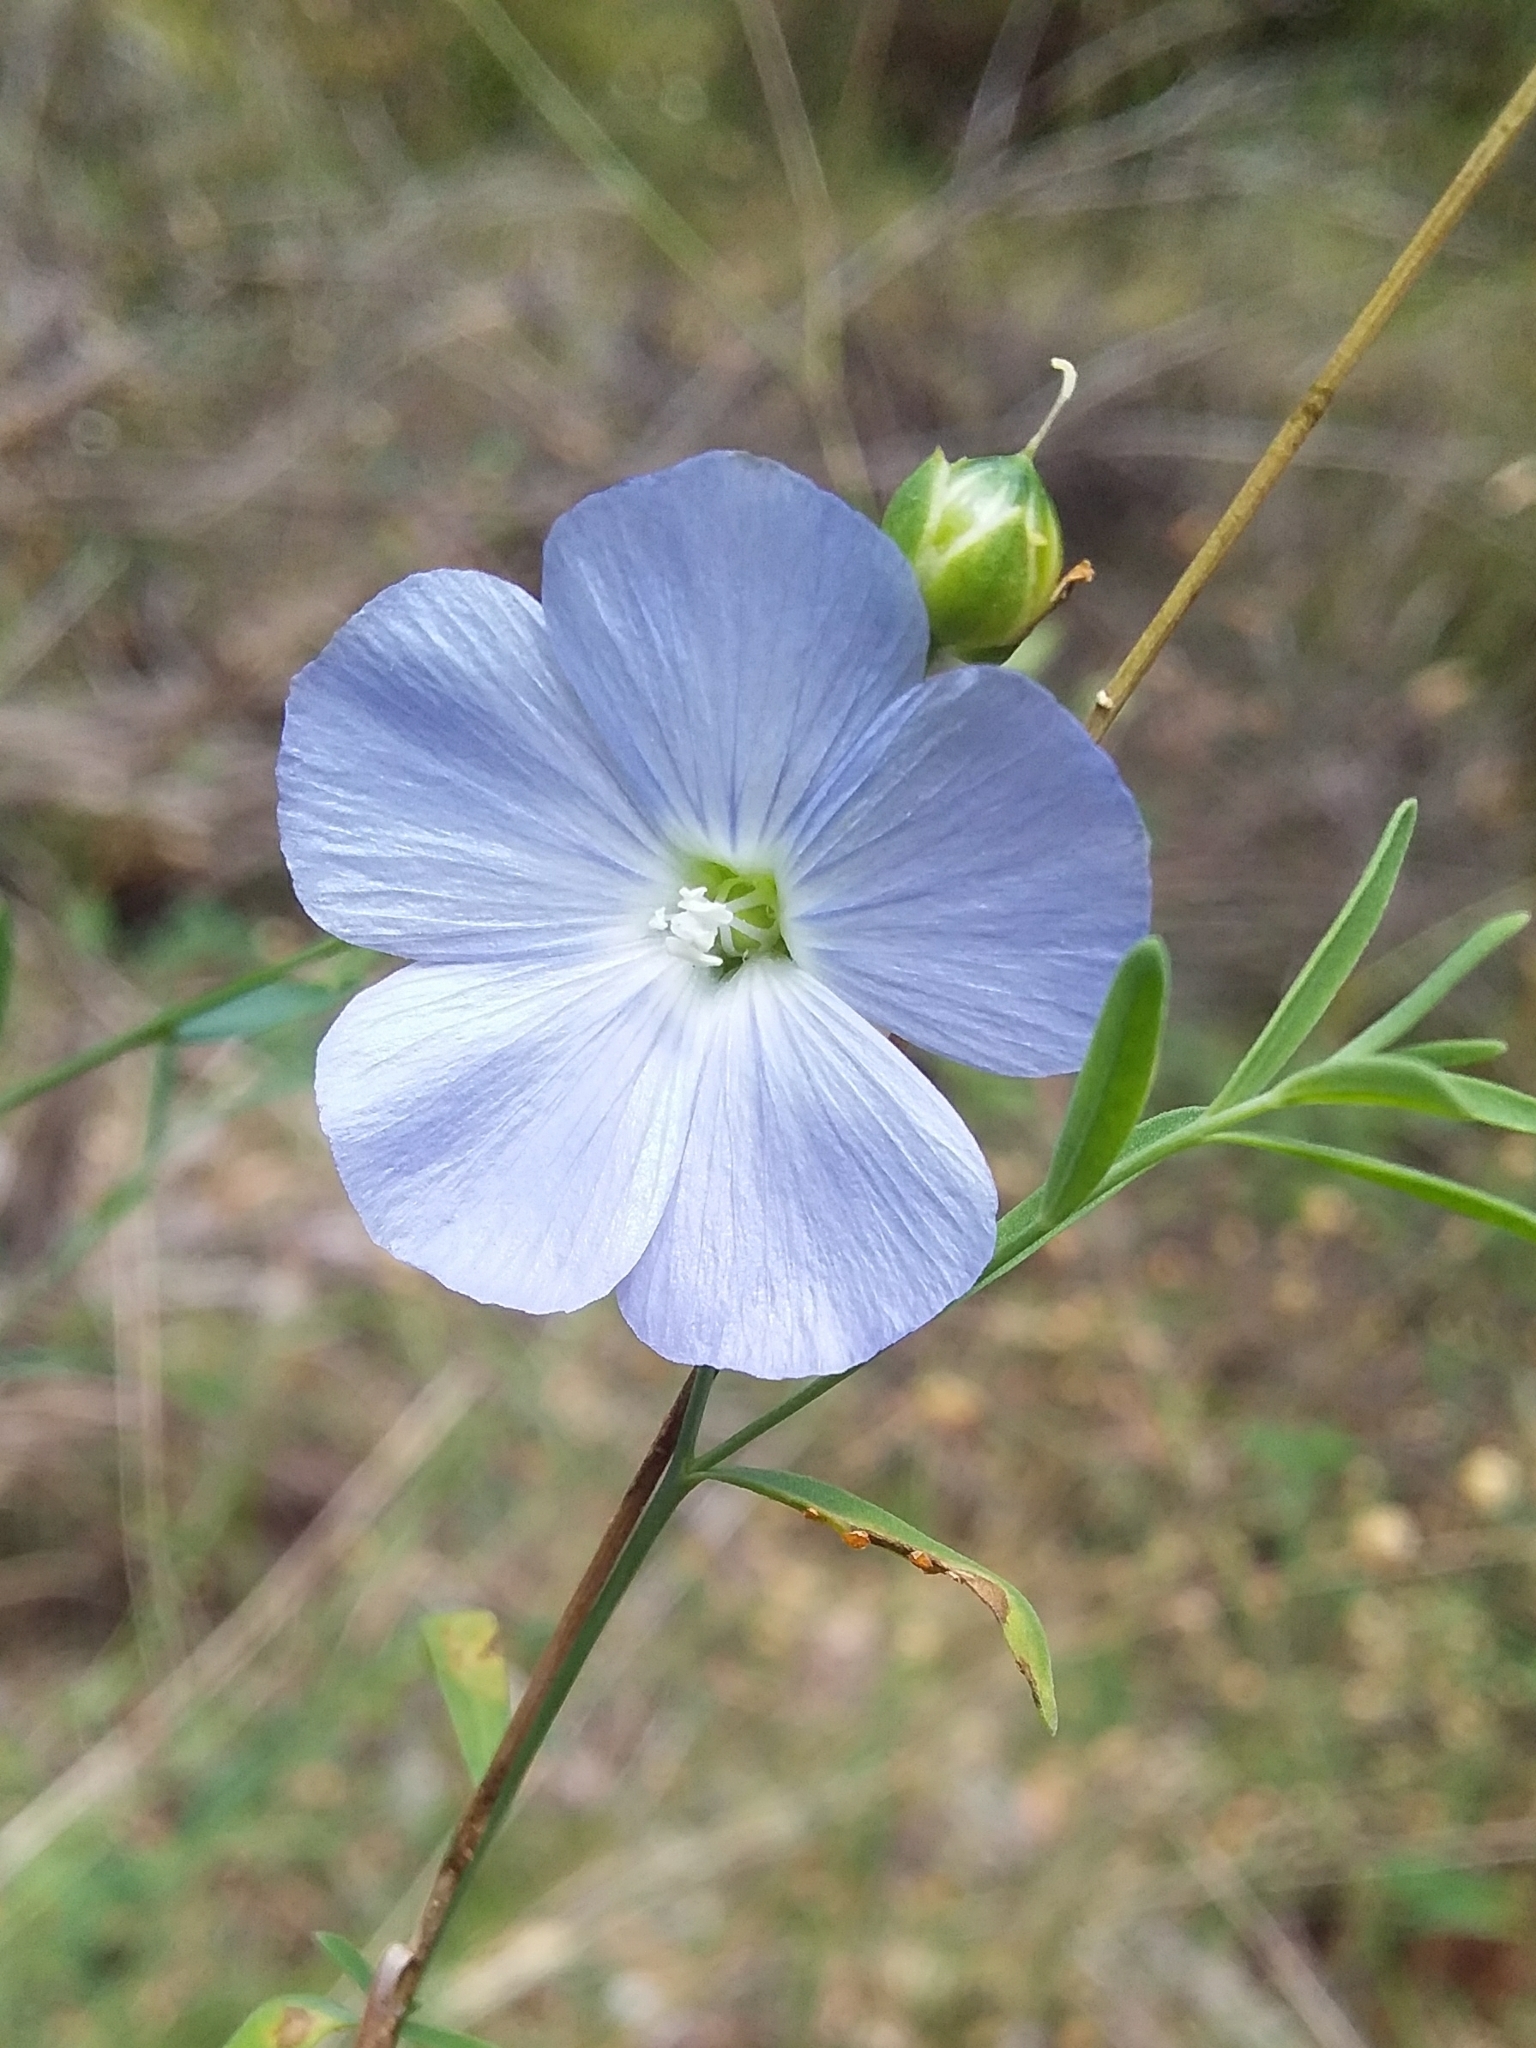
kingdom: Plantae
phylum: Tracheophyta
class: Magnoliopsida
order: Malpighiales
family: Linaceae
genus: Linum
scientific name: Linum marginale
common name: Wild flax
